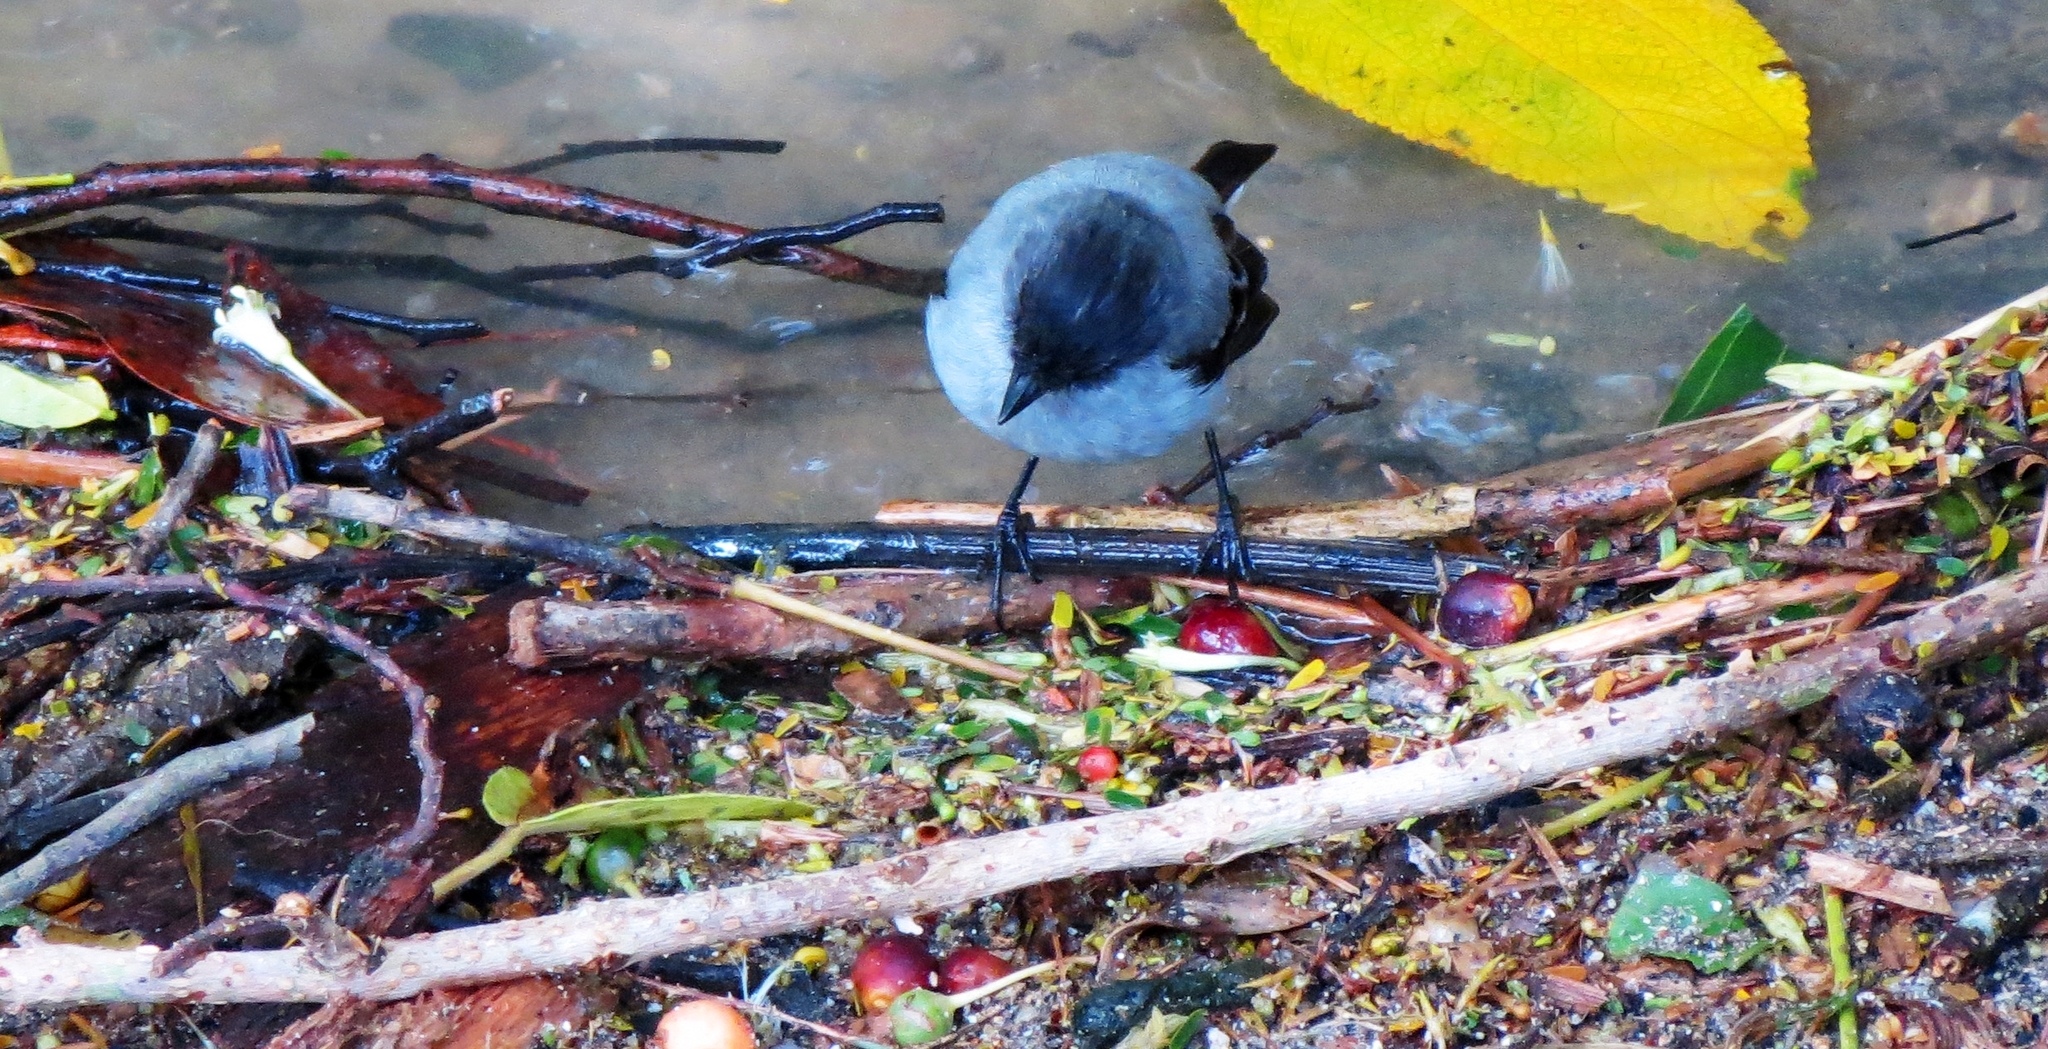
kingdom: Animalia
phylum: Chordata
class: Aves
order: Passeriformes
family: Tyrannidae
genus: Serpophaga
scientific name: Serpophaga cinerea
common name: Torrent tyrannulet
